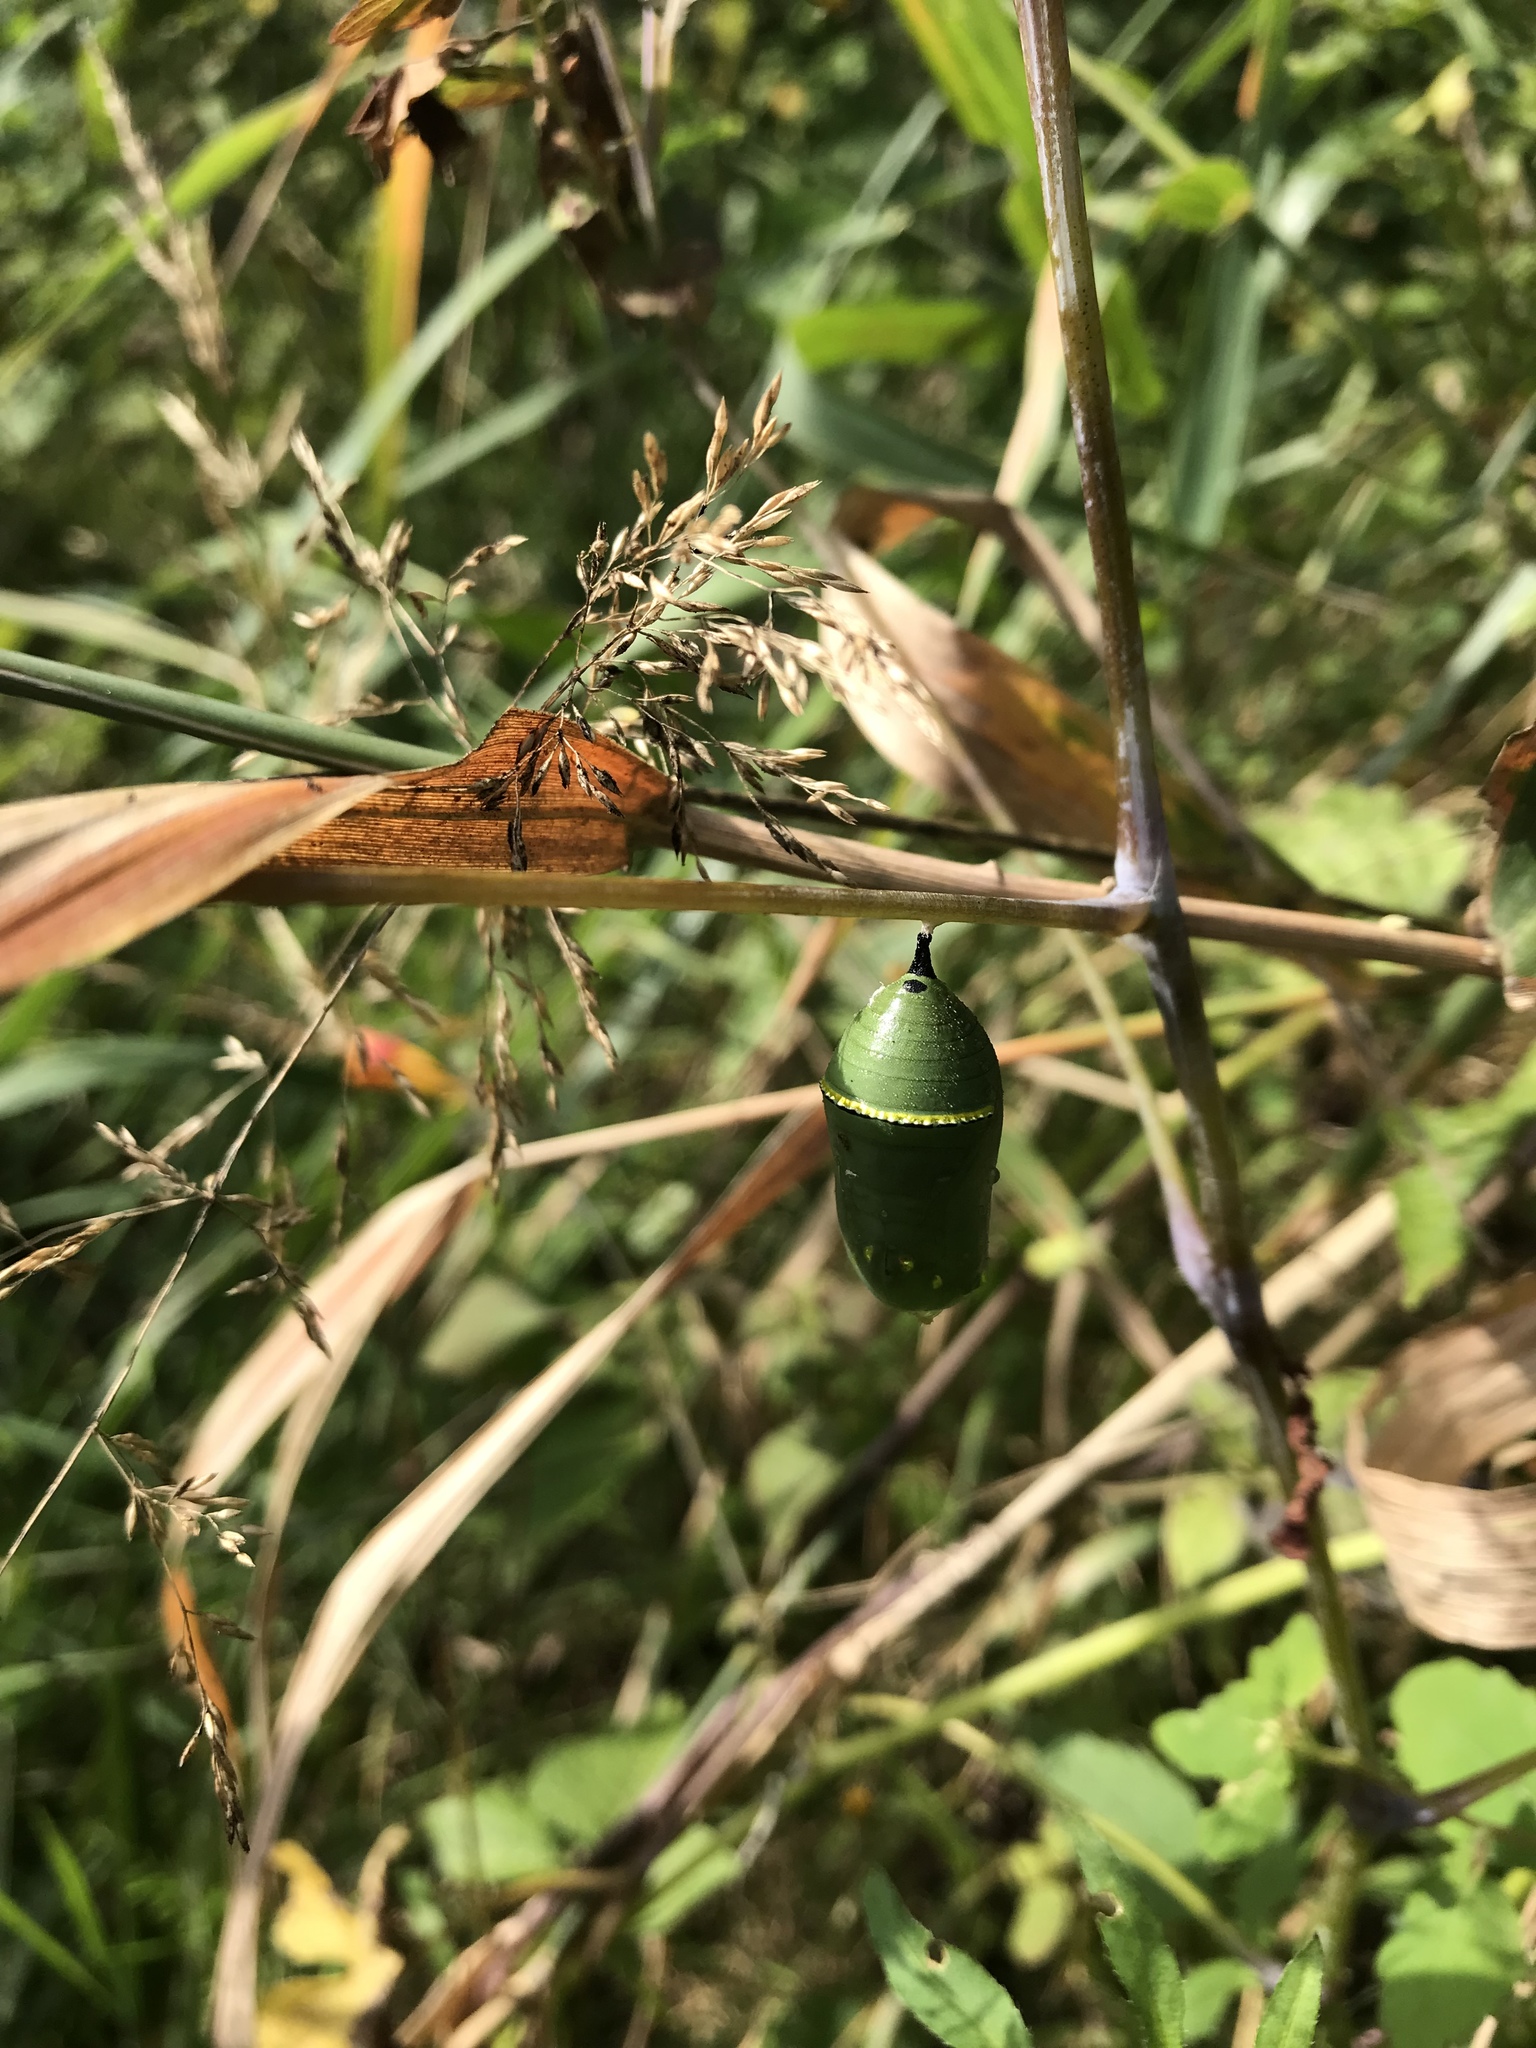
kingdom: Animalia
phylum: Arthropoda
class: Insecta
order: Lepidoptera
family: Nymphalidae
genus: Danaus
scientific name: Danaus plexippus
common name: Monarch
